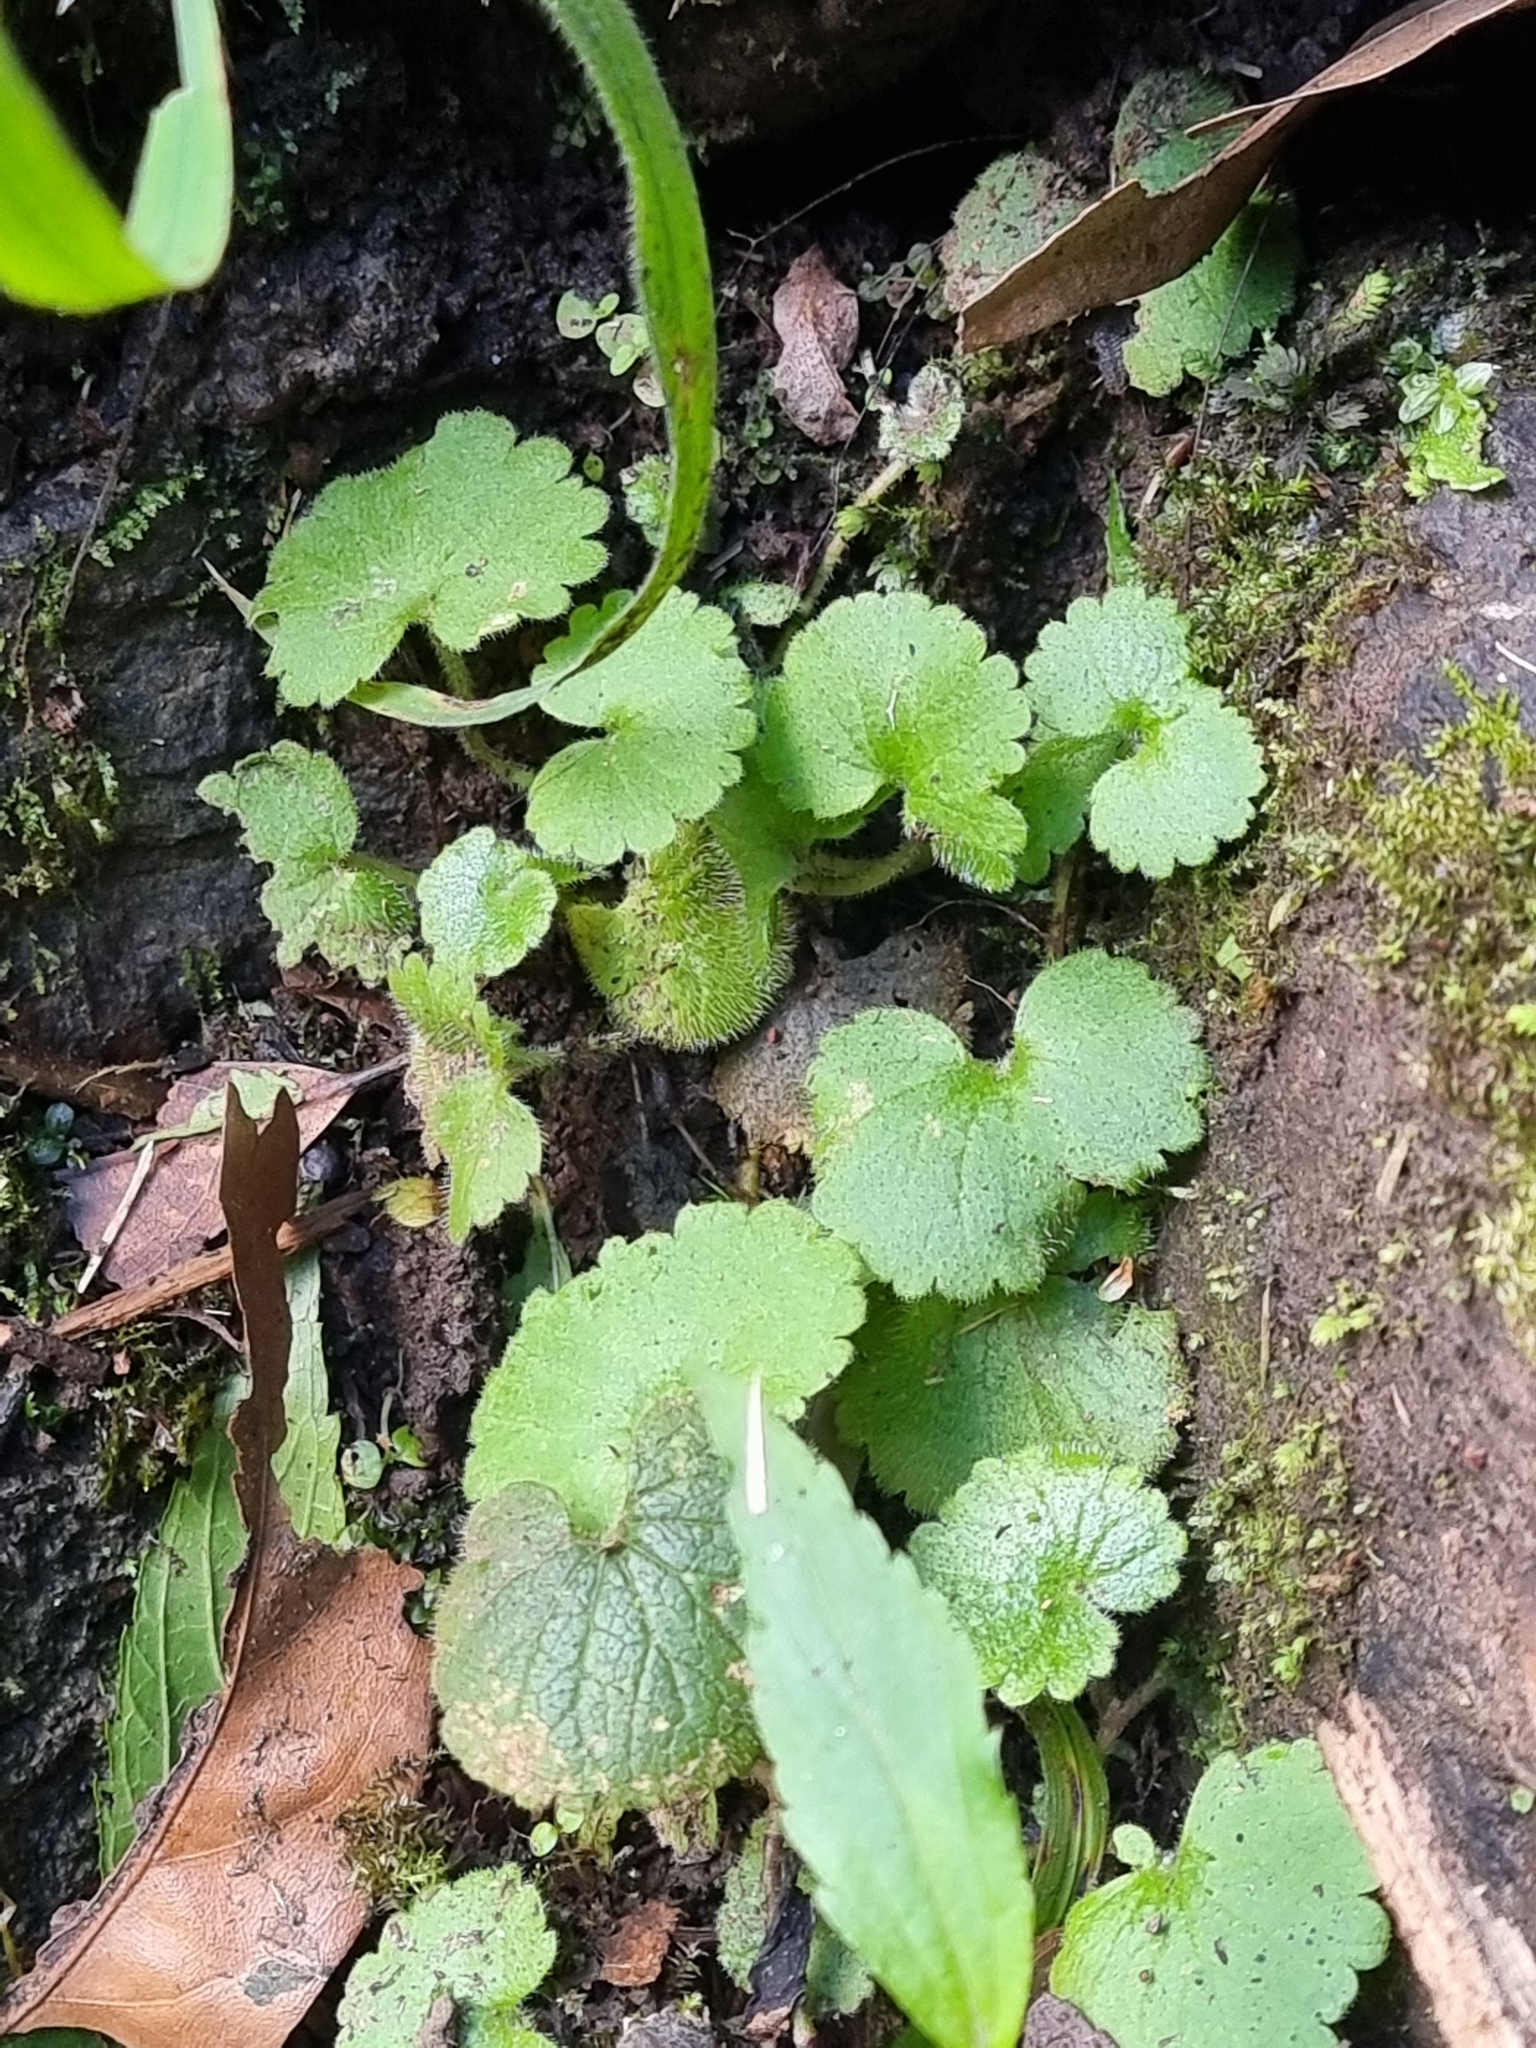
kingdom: Plantae
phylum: Tracheophyta
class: Magnoliopsida
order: Lamiales
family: Plantaginaceae
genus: Sibthorpia
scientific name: Sibthorpia peregrina
